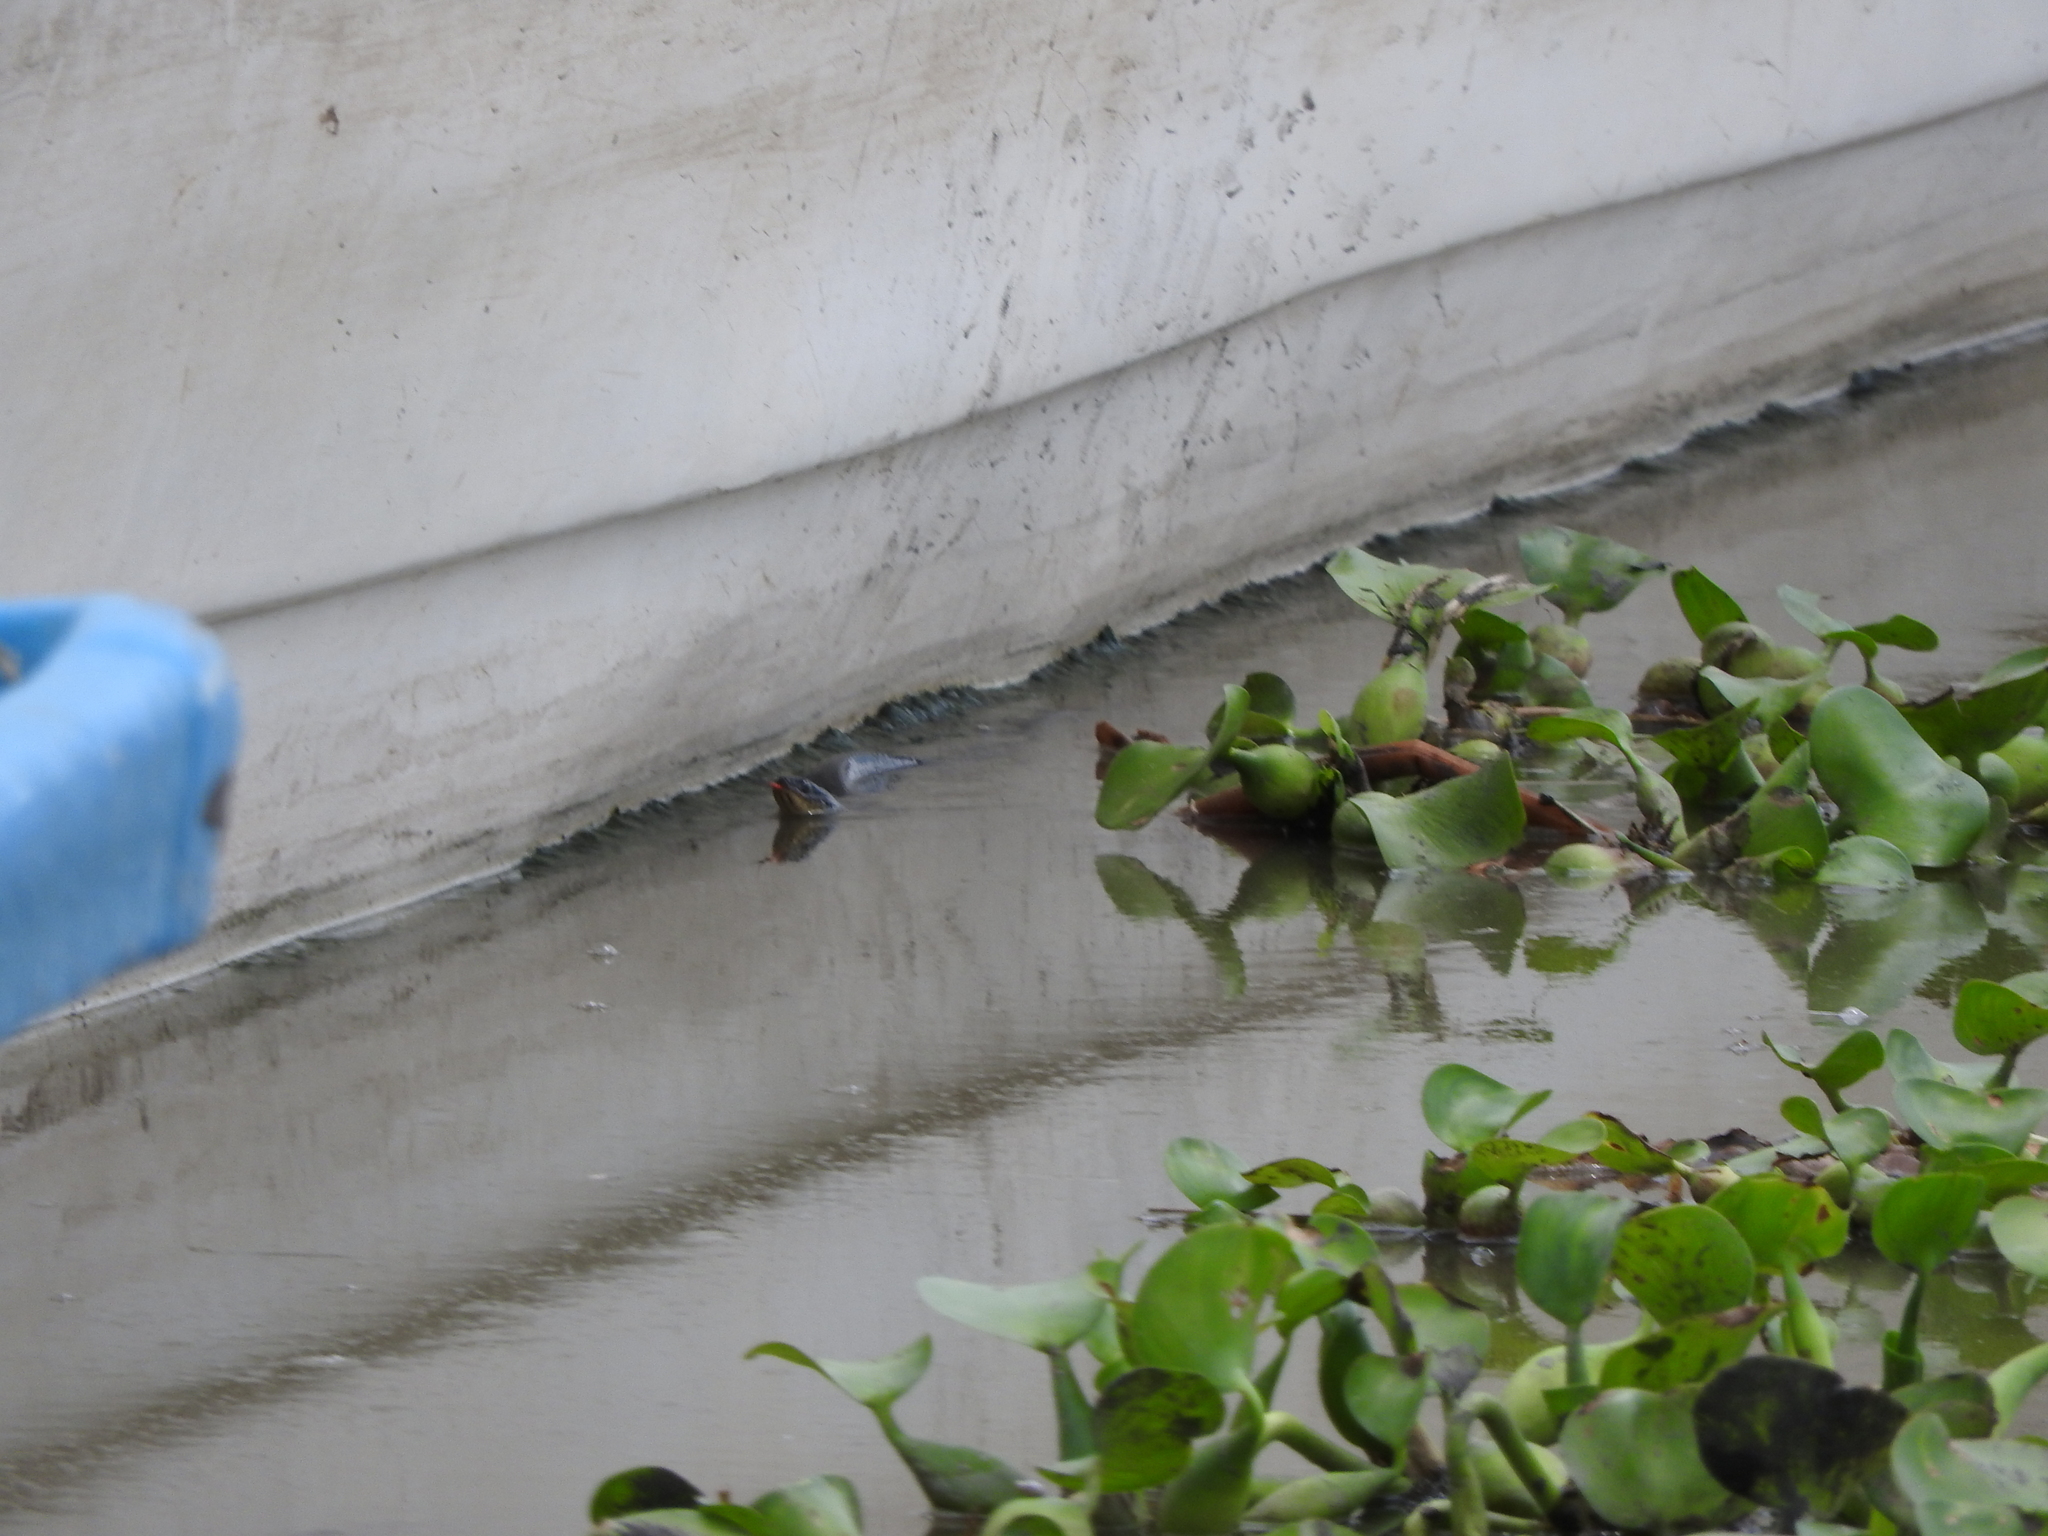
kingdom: Animalia
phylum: Chordata
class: Squamata
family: Colubridae
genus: Thamnophis
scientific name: Thamnophis melanogaster
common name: Blackbelly garter snake
